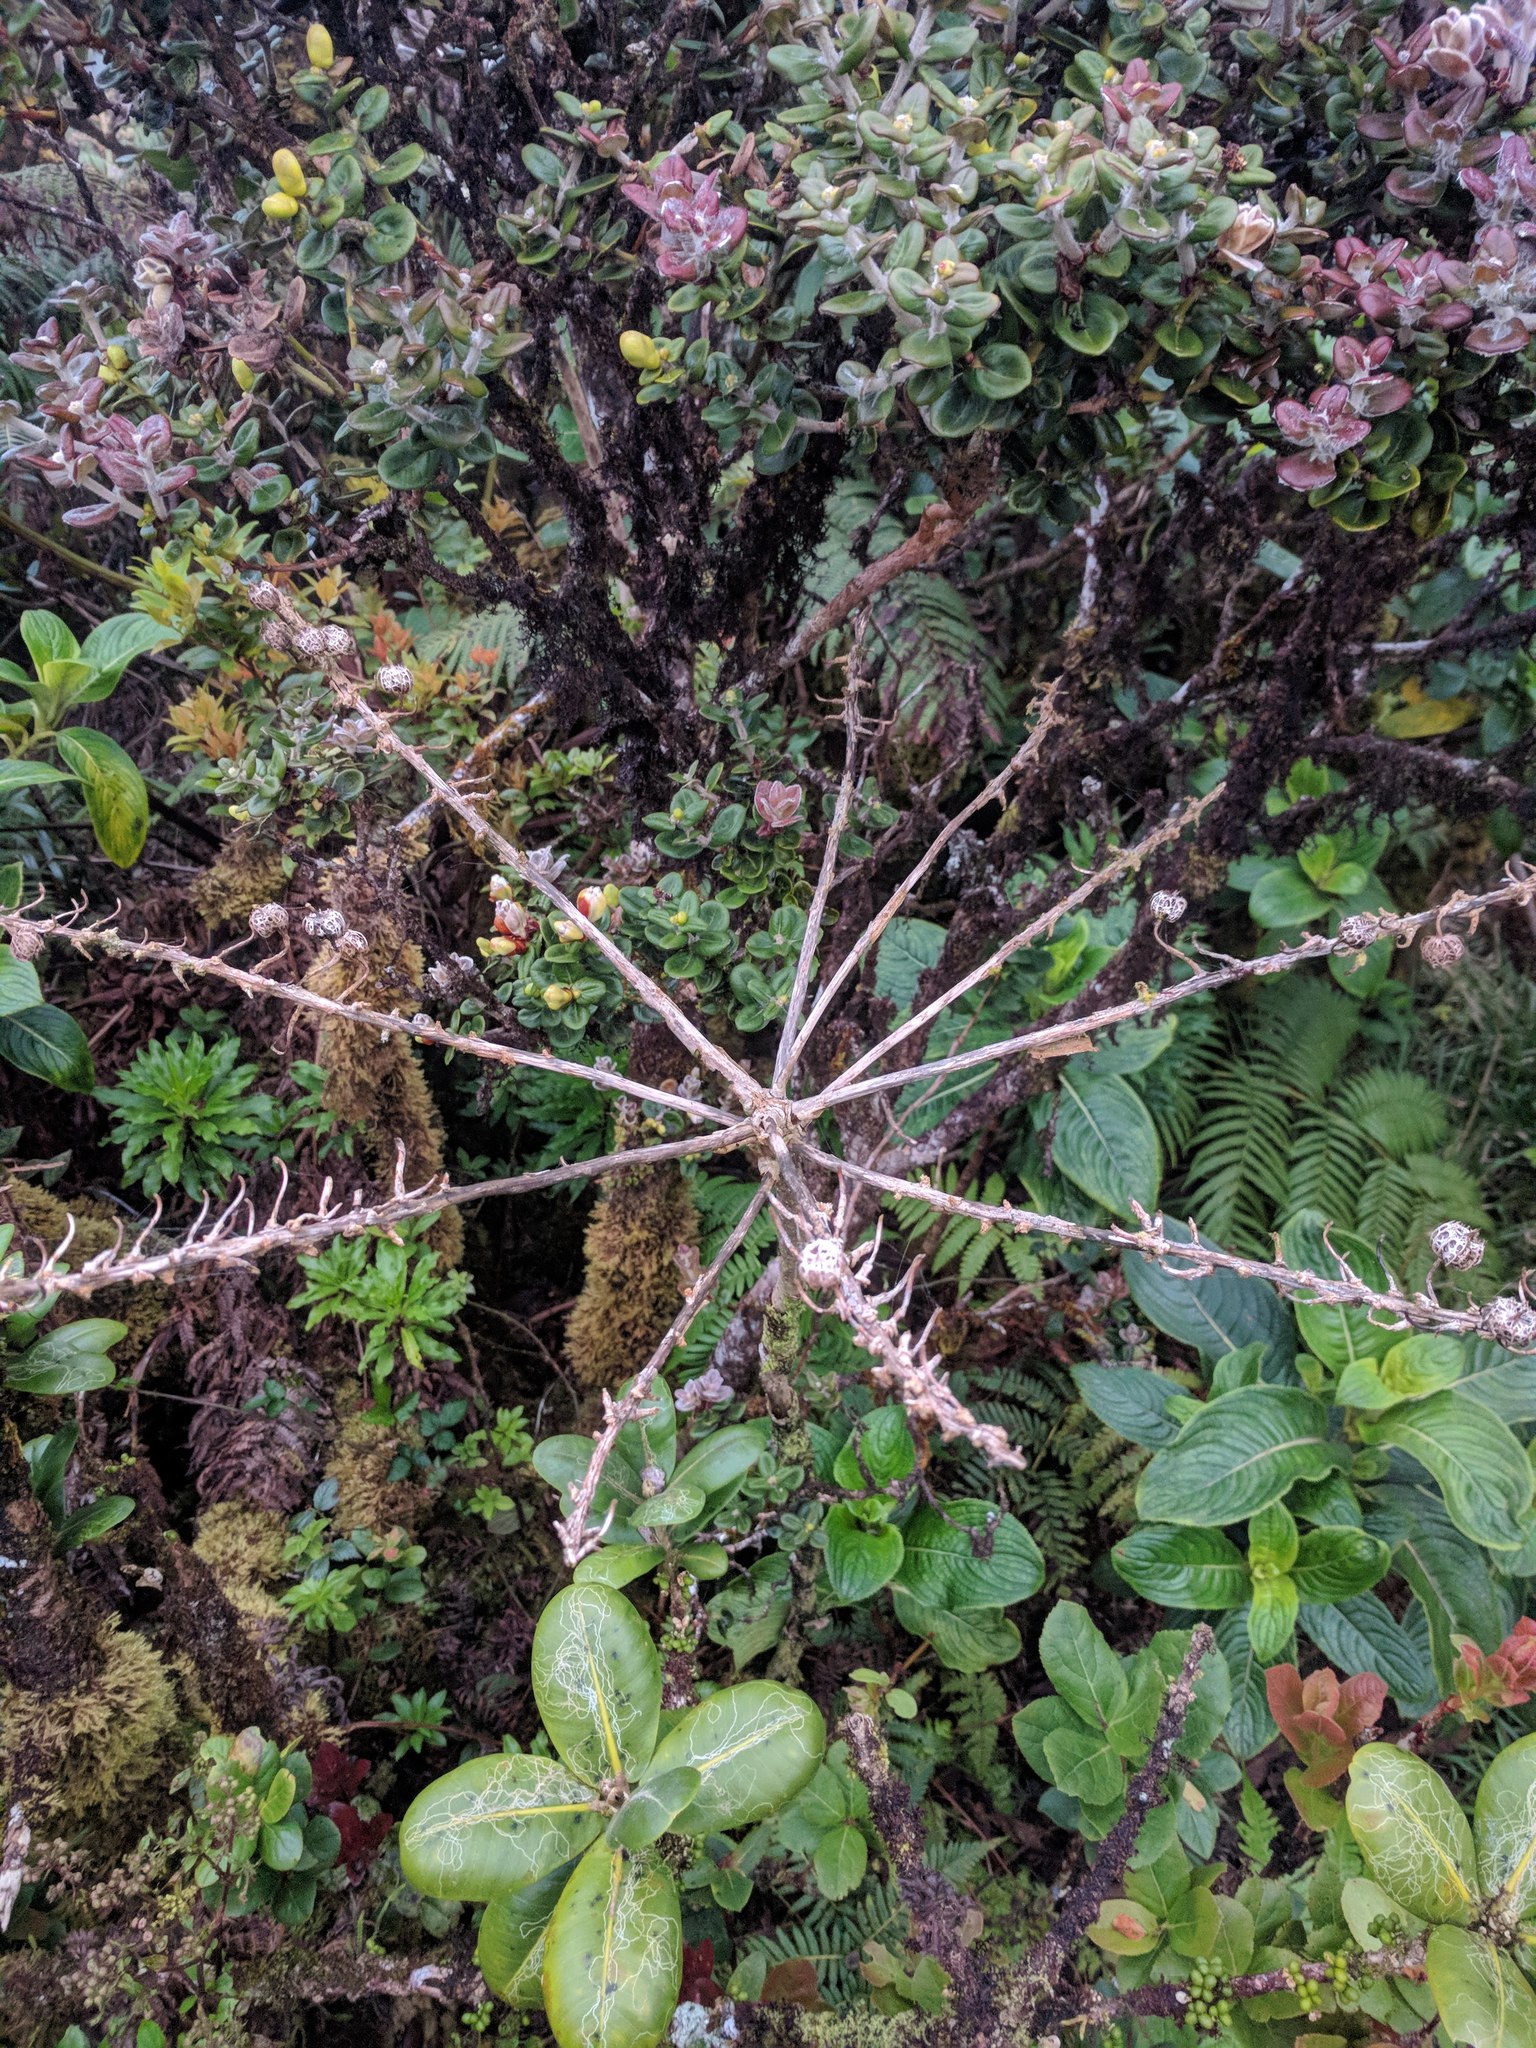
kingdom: Plantae
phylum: Tracheophyta
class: Magnoliopsida
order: Asterales
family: Campanulaceae
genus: Trematolobelia
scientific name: Trematolobelia kaalae
